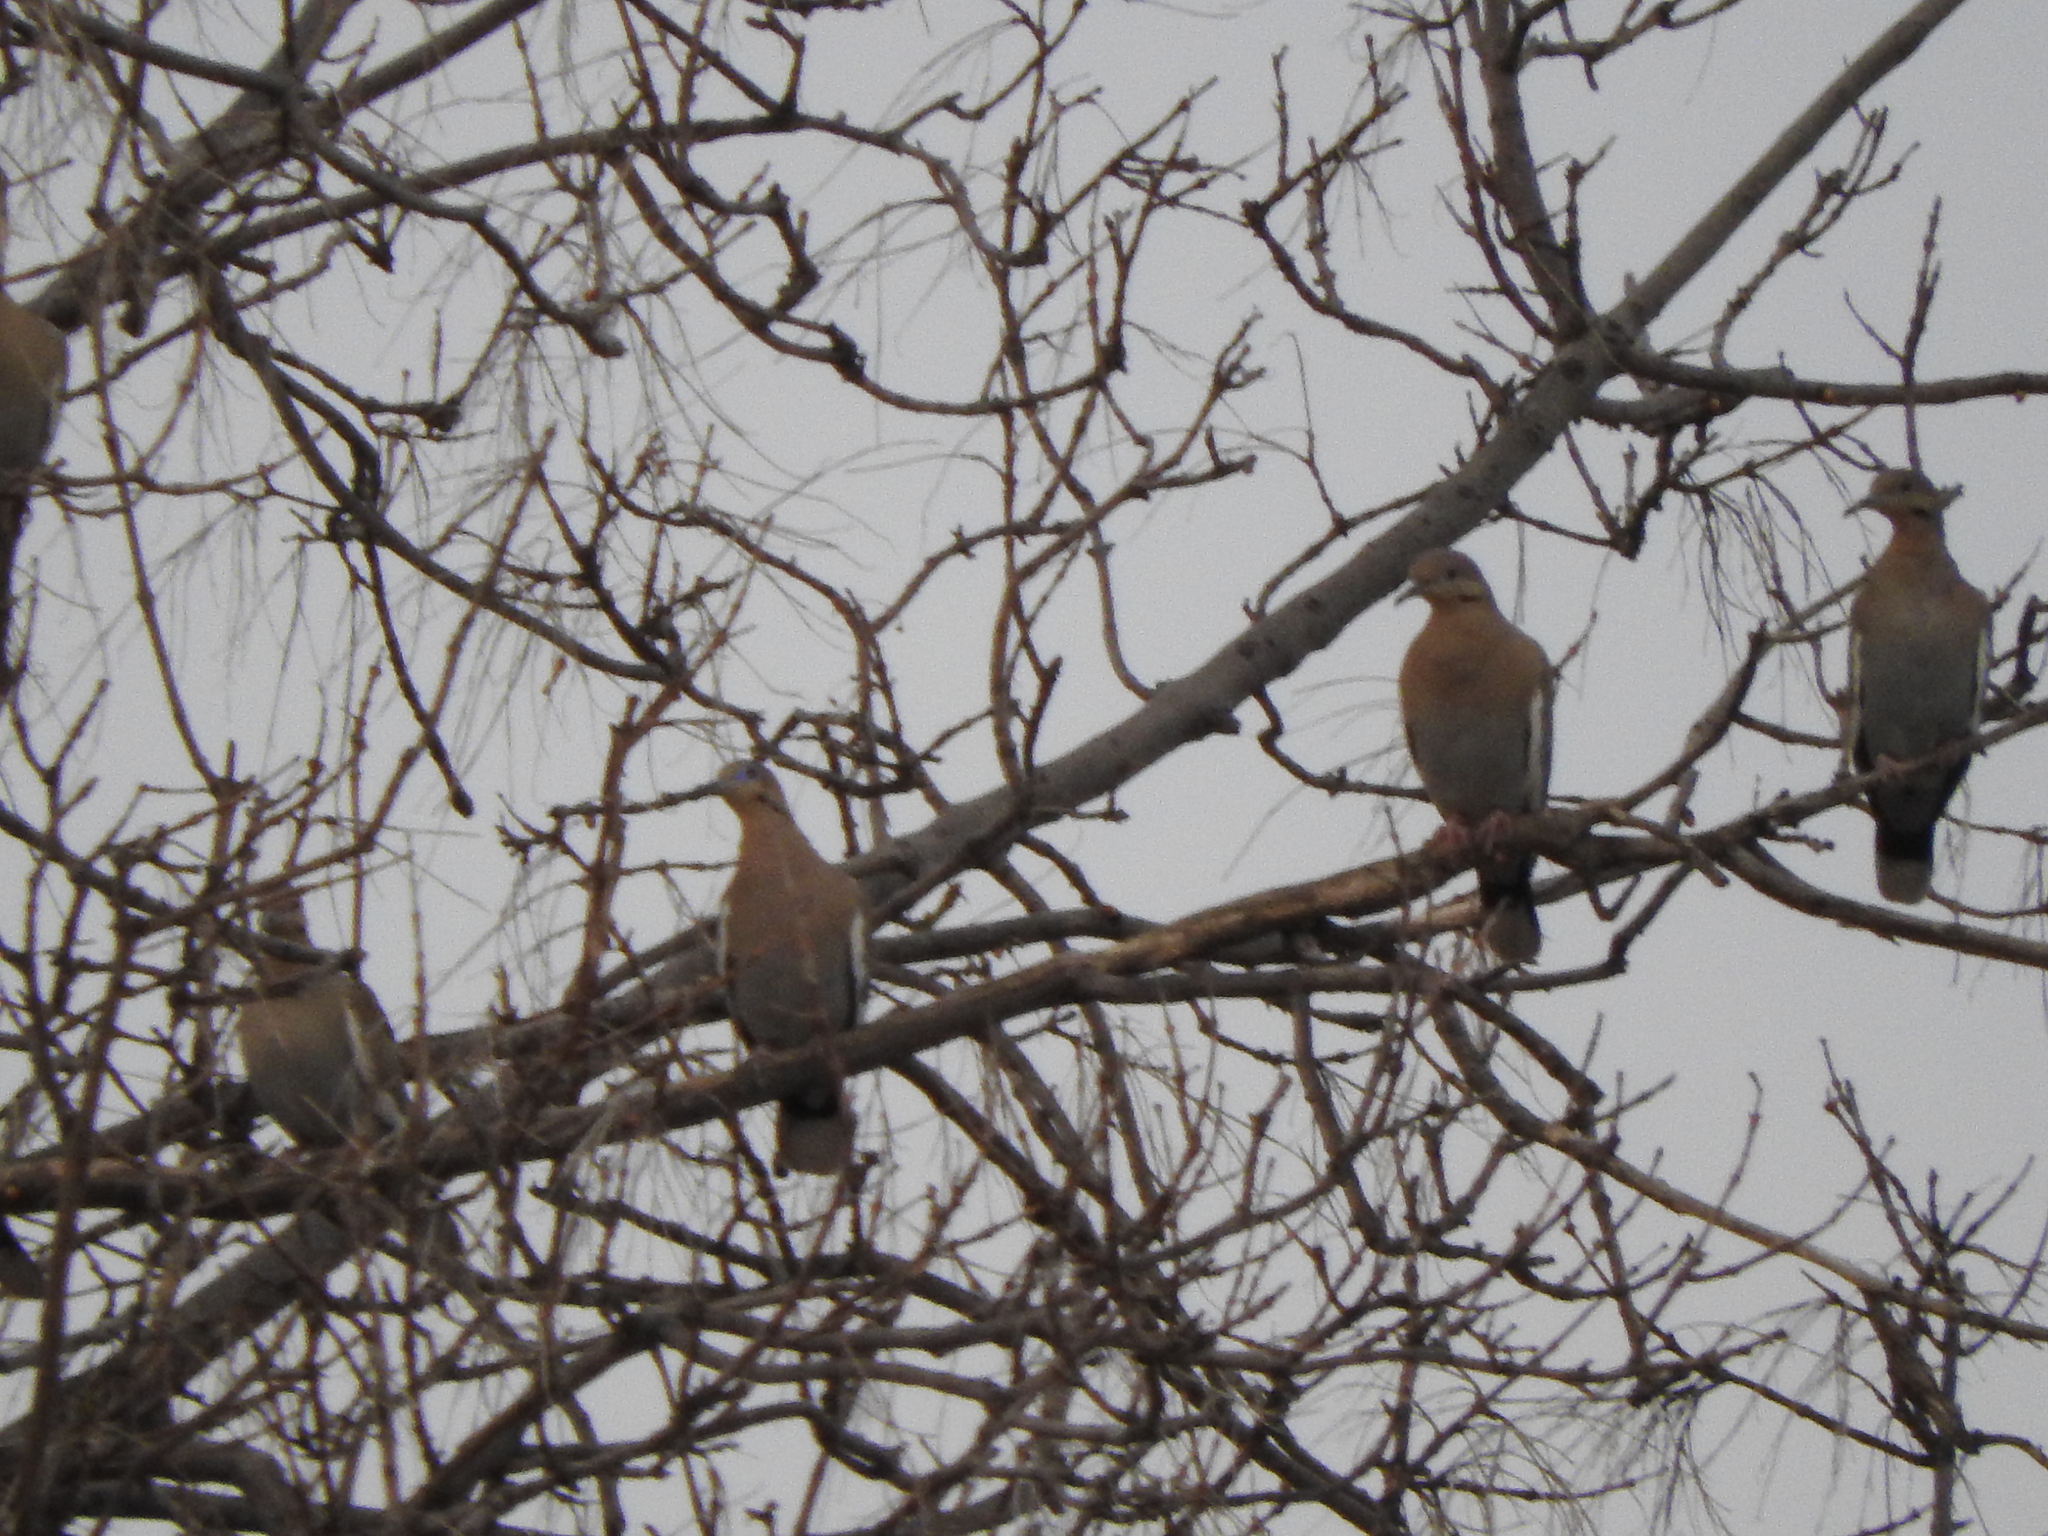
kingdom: Animalia
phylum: Chordata
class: Aves
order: Columbiformes
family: Columbidae
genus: Zenaida
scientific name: Zenaida asiatica
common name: White-winged dove
